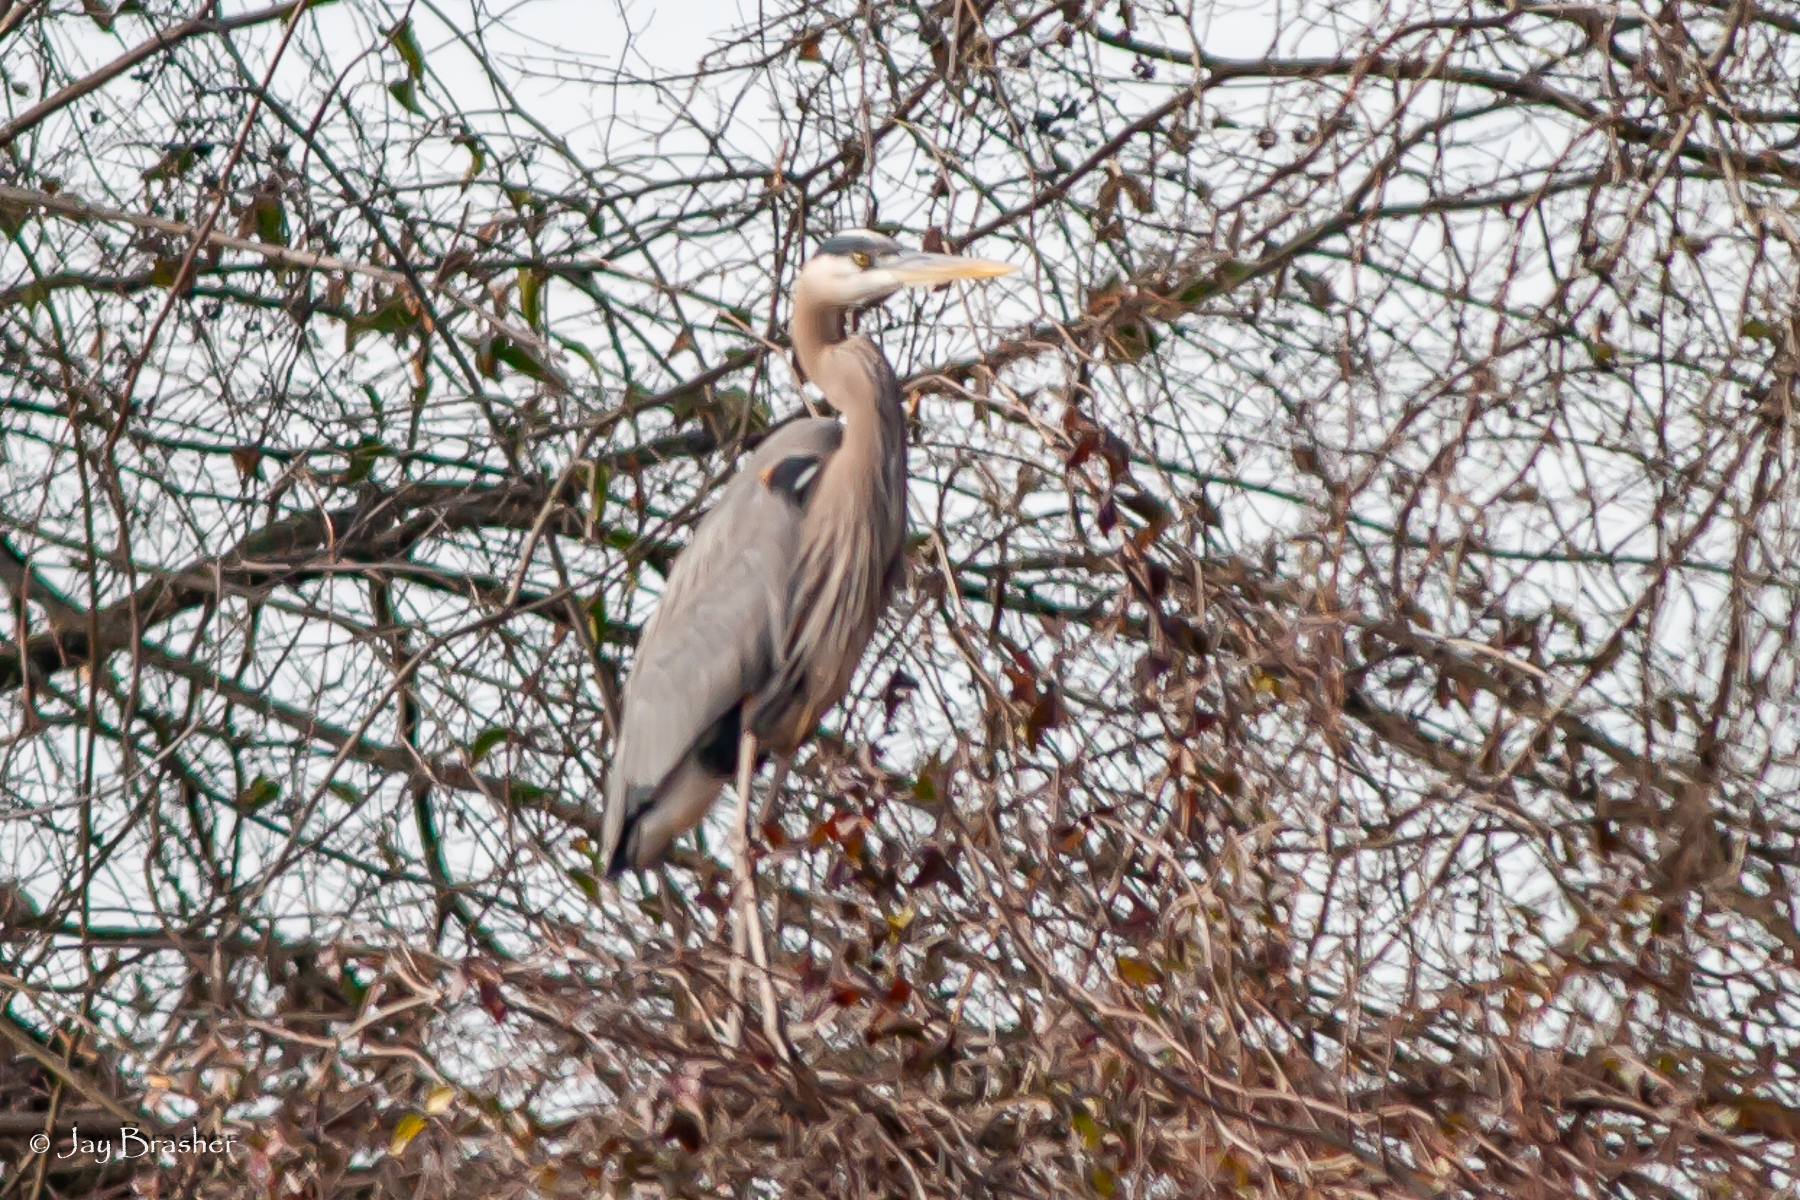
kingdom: Animalia
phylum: Chordata
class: Aves
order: Pelecaniformes
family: Ardeidae
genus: Ardea
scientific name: Ardea herodias
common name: Great blue heron
